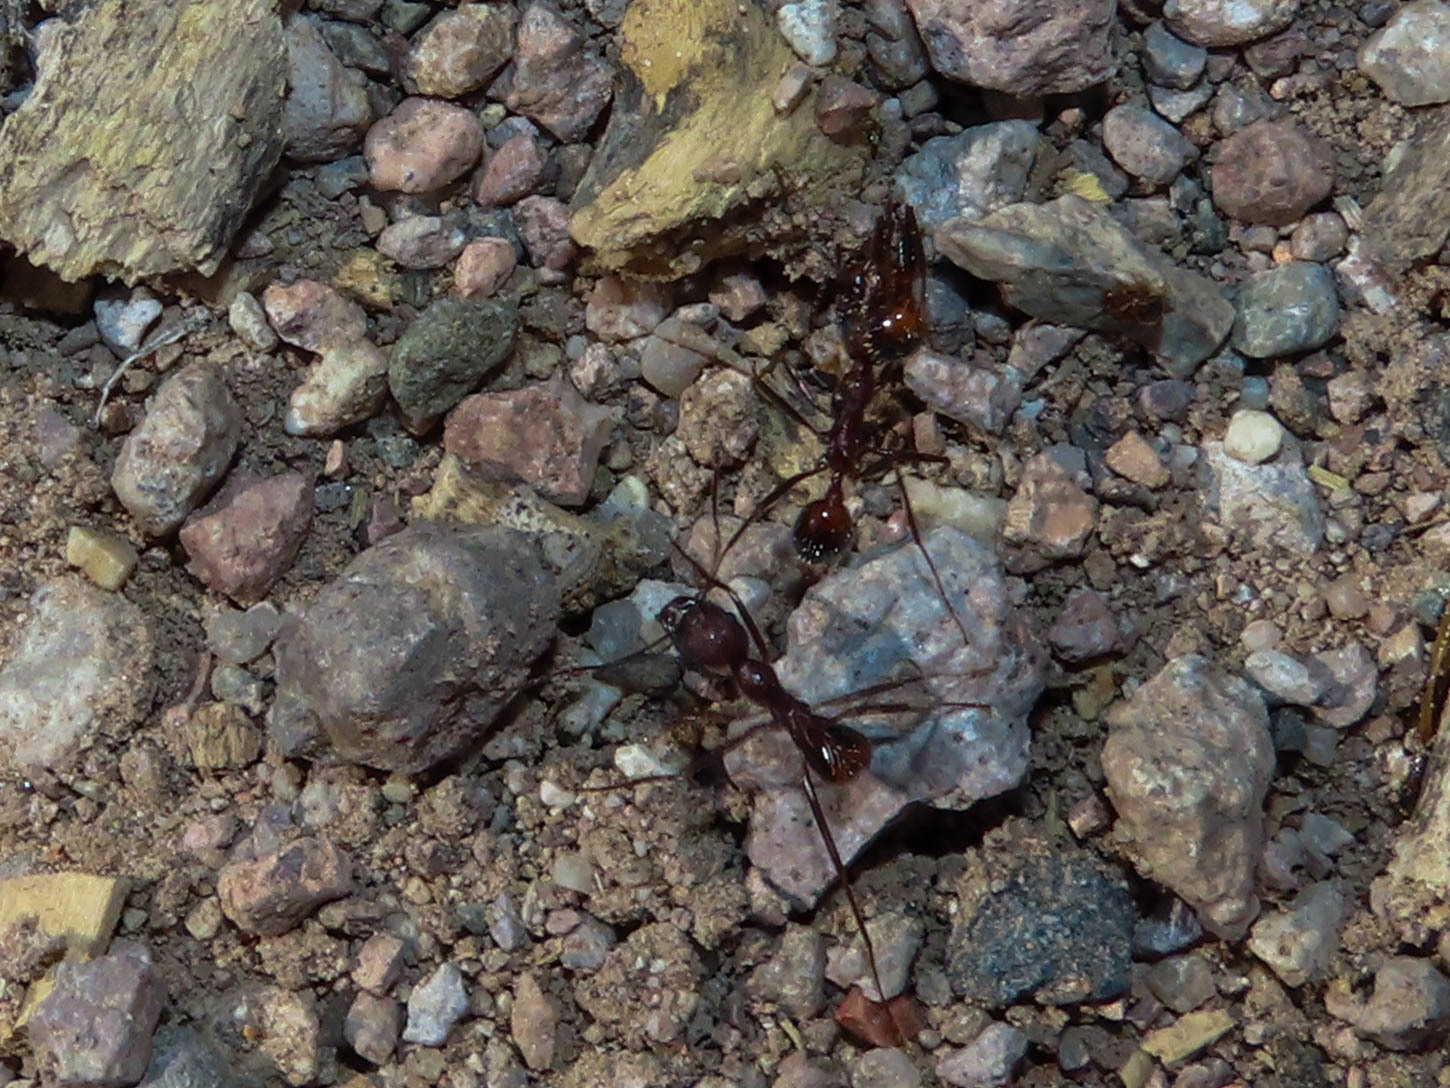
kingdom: Animalia
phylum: Arthropoda
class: Insecta
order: Hymenoptera
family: Formicidae
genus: Novomessor
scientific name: Novomessor albisetosa
